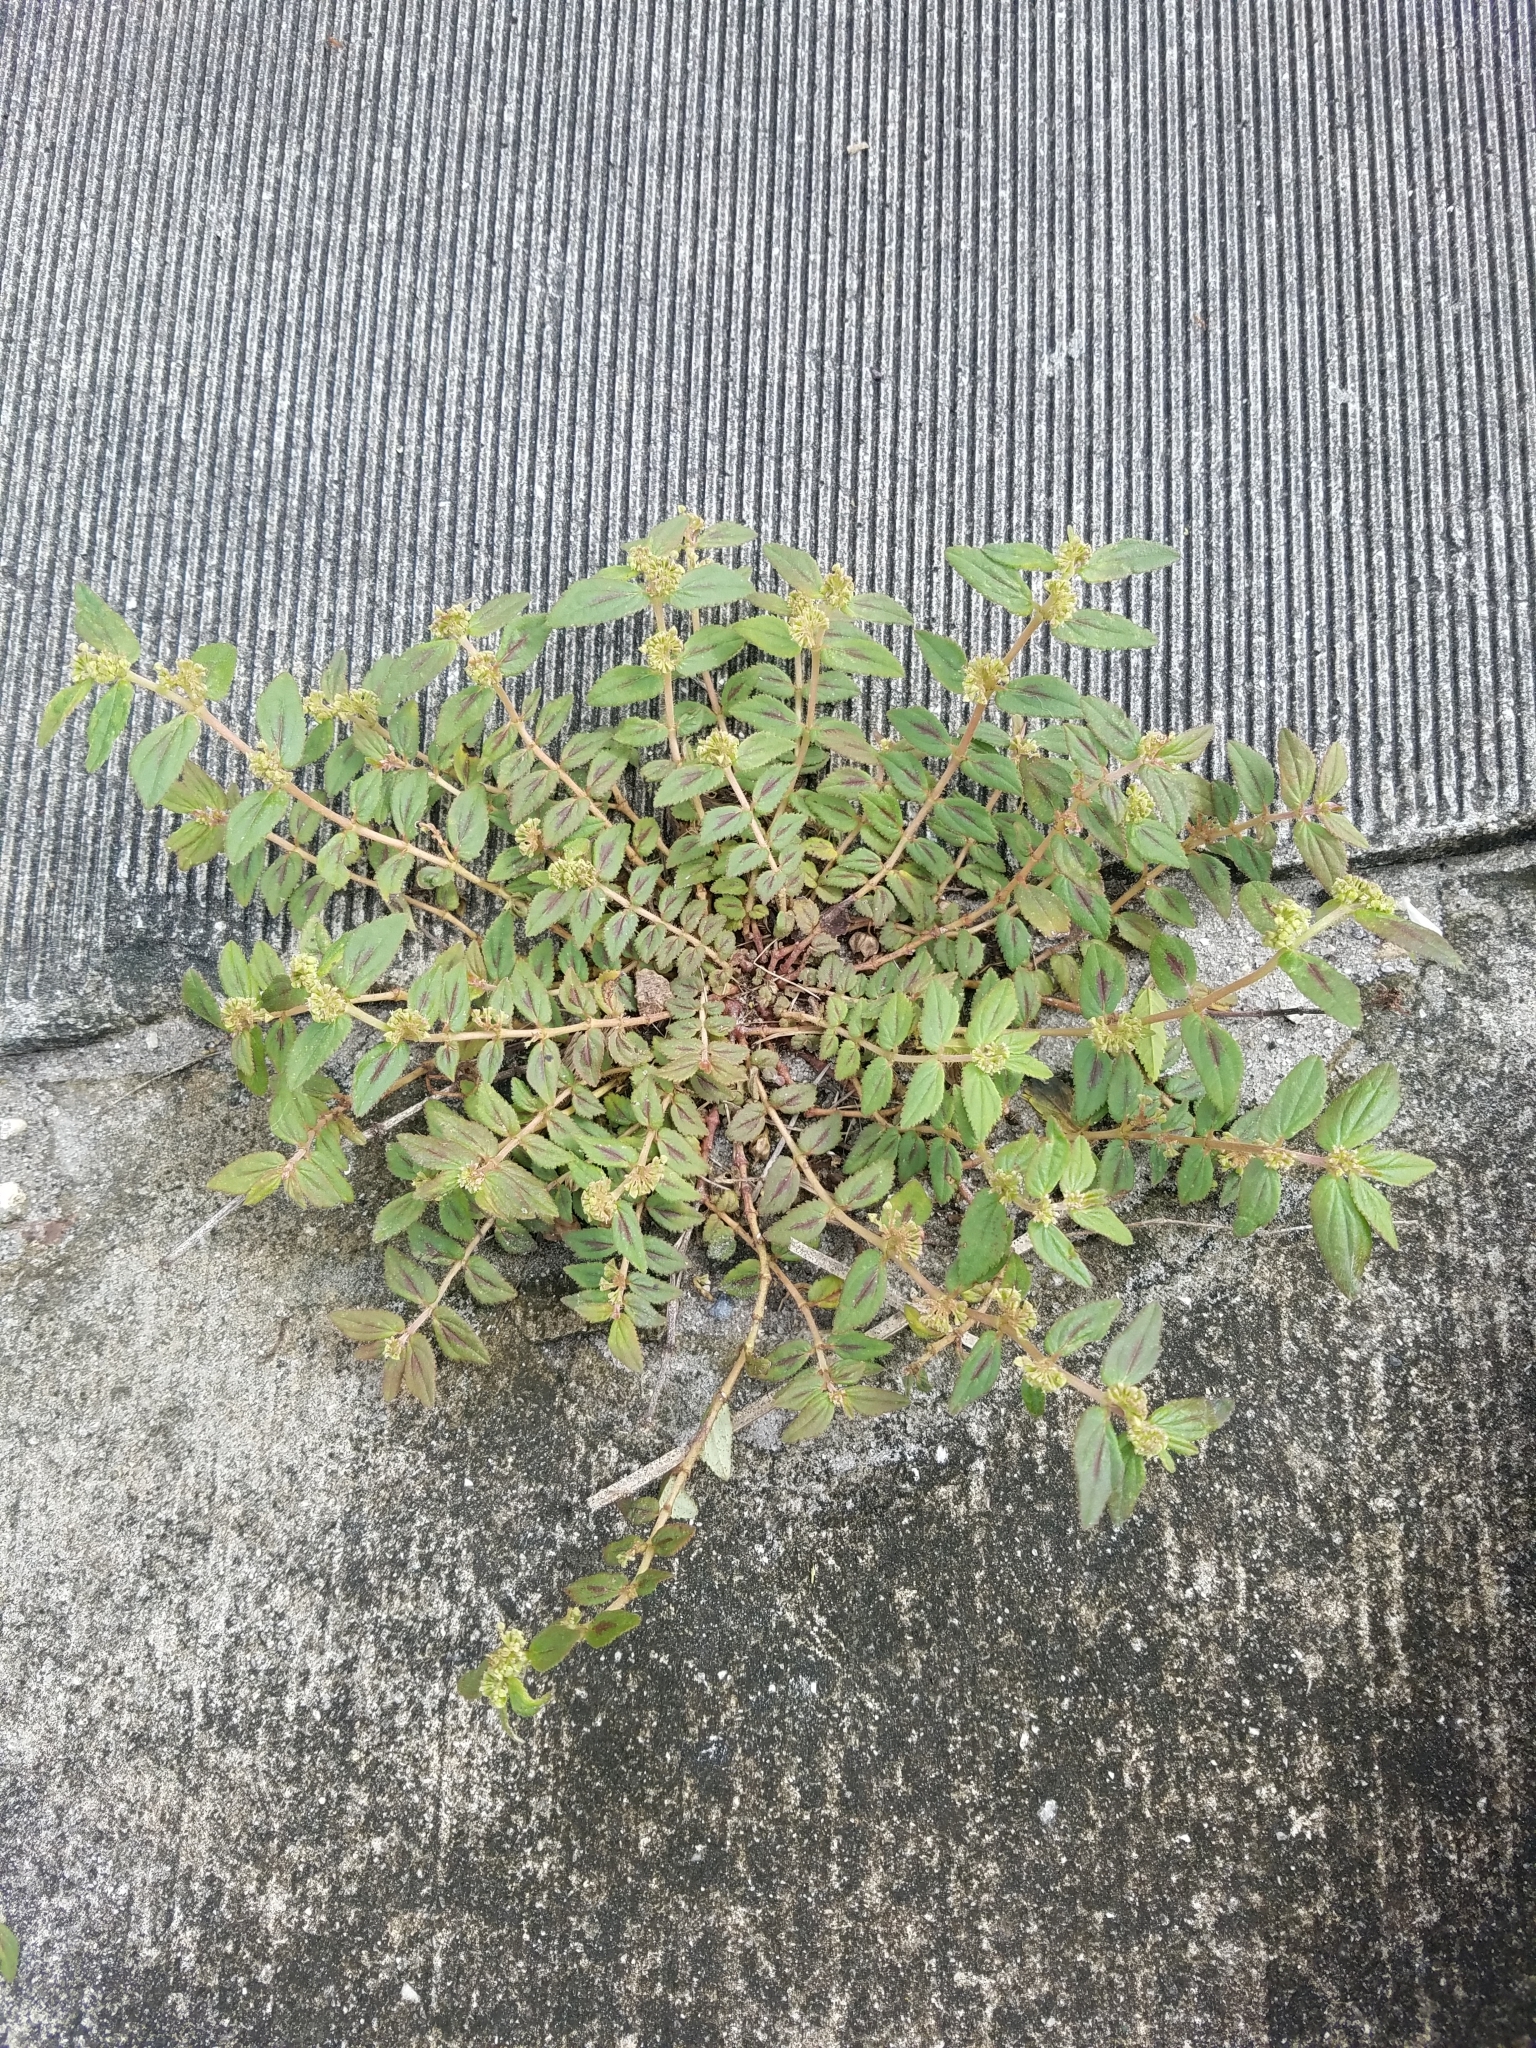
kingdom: Plantae
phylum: Tracheophyta
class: Magnoliopsida
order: Malpighiales
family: Euphorbiaceae
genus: Euphorbia
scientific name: Euphorbia hirta
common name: Pillpod sandmat
